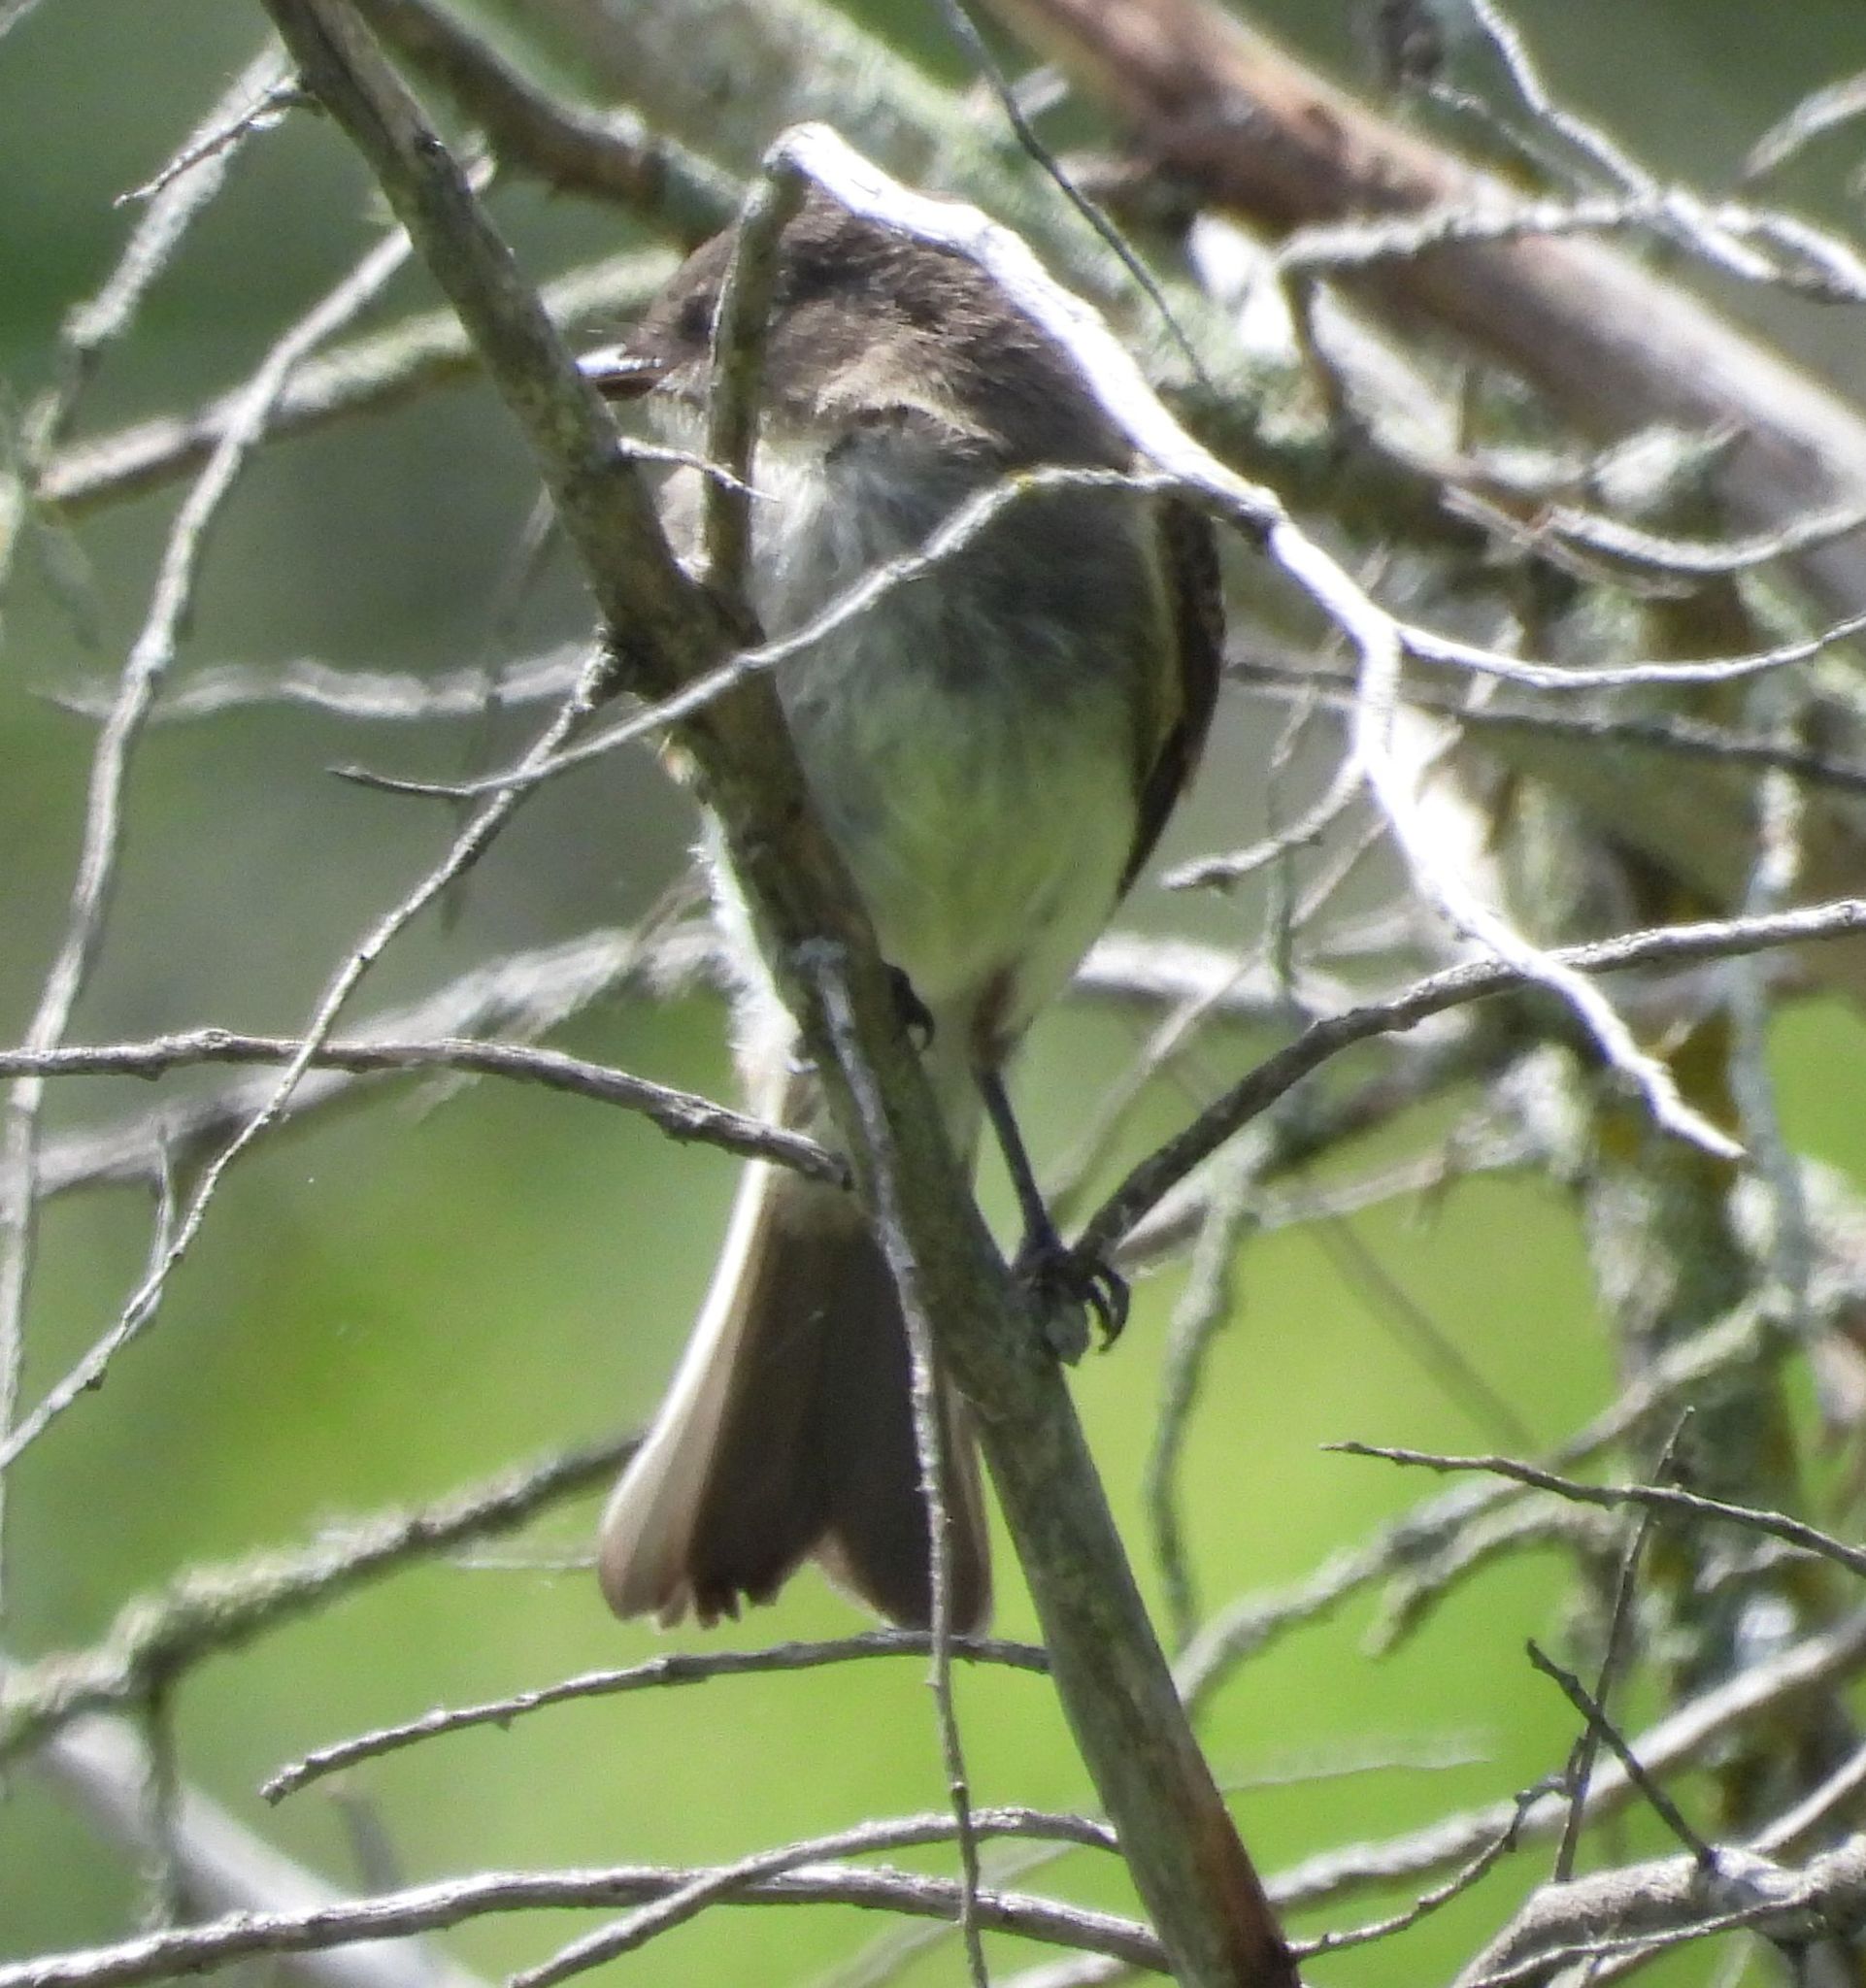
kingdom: Animalia
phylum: Chordata
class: Aves
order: Passeriformes
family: Tyrannidae
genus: Sayornis
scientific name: Sayornis phoebe
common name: Eastern phoebe
